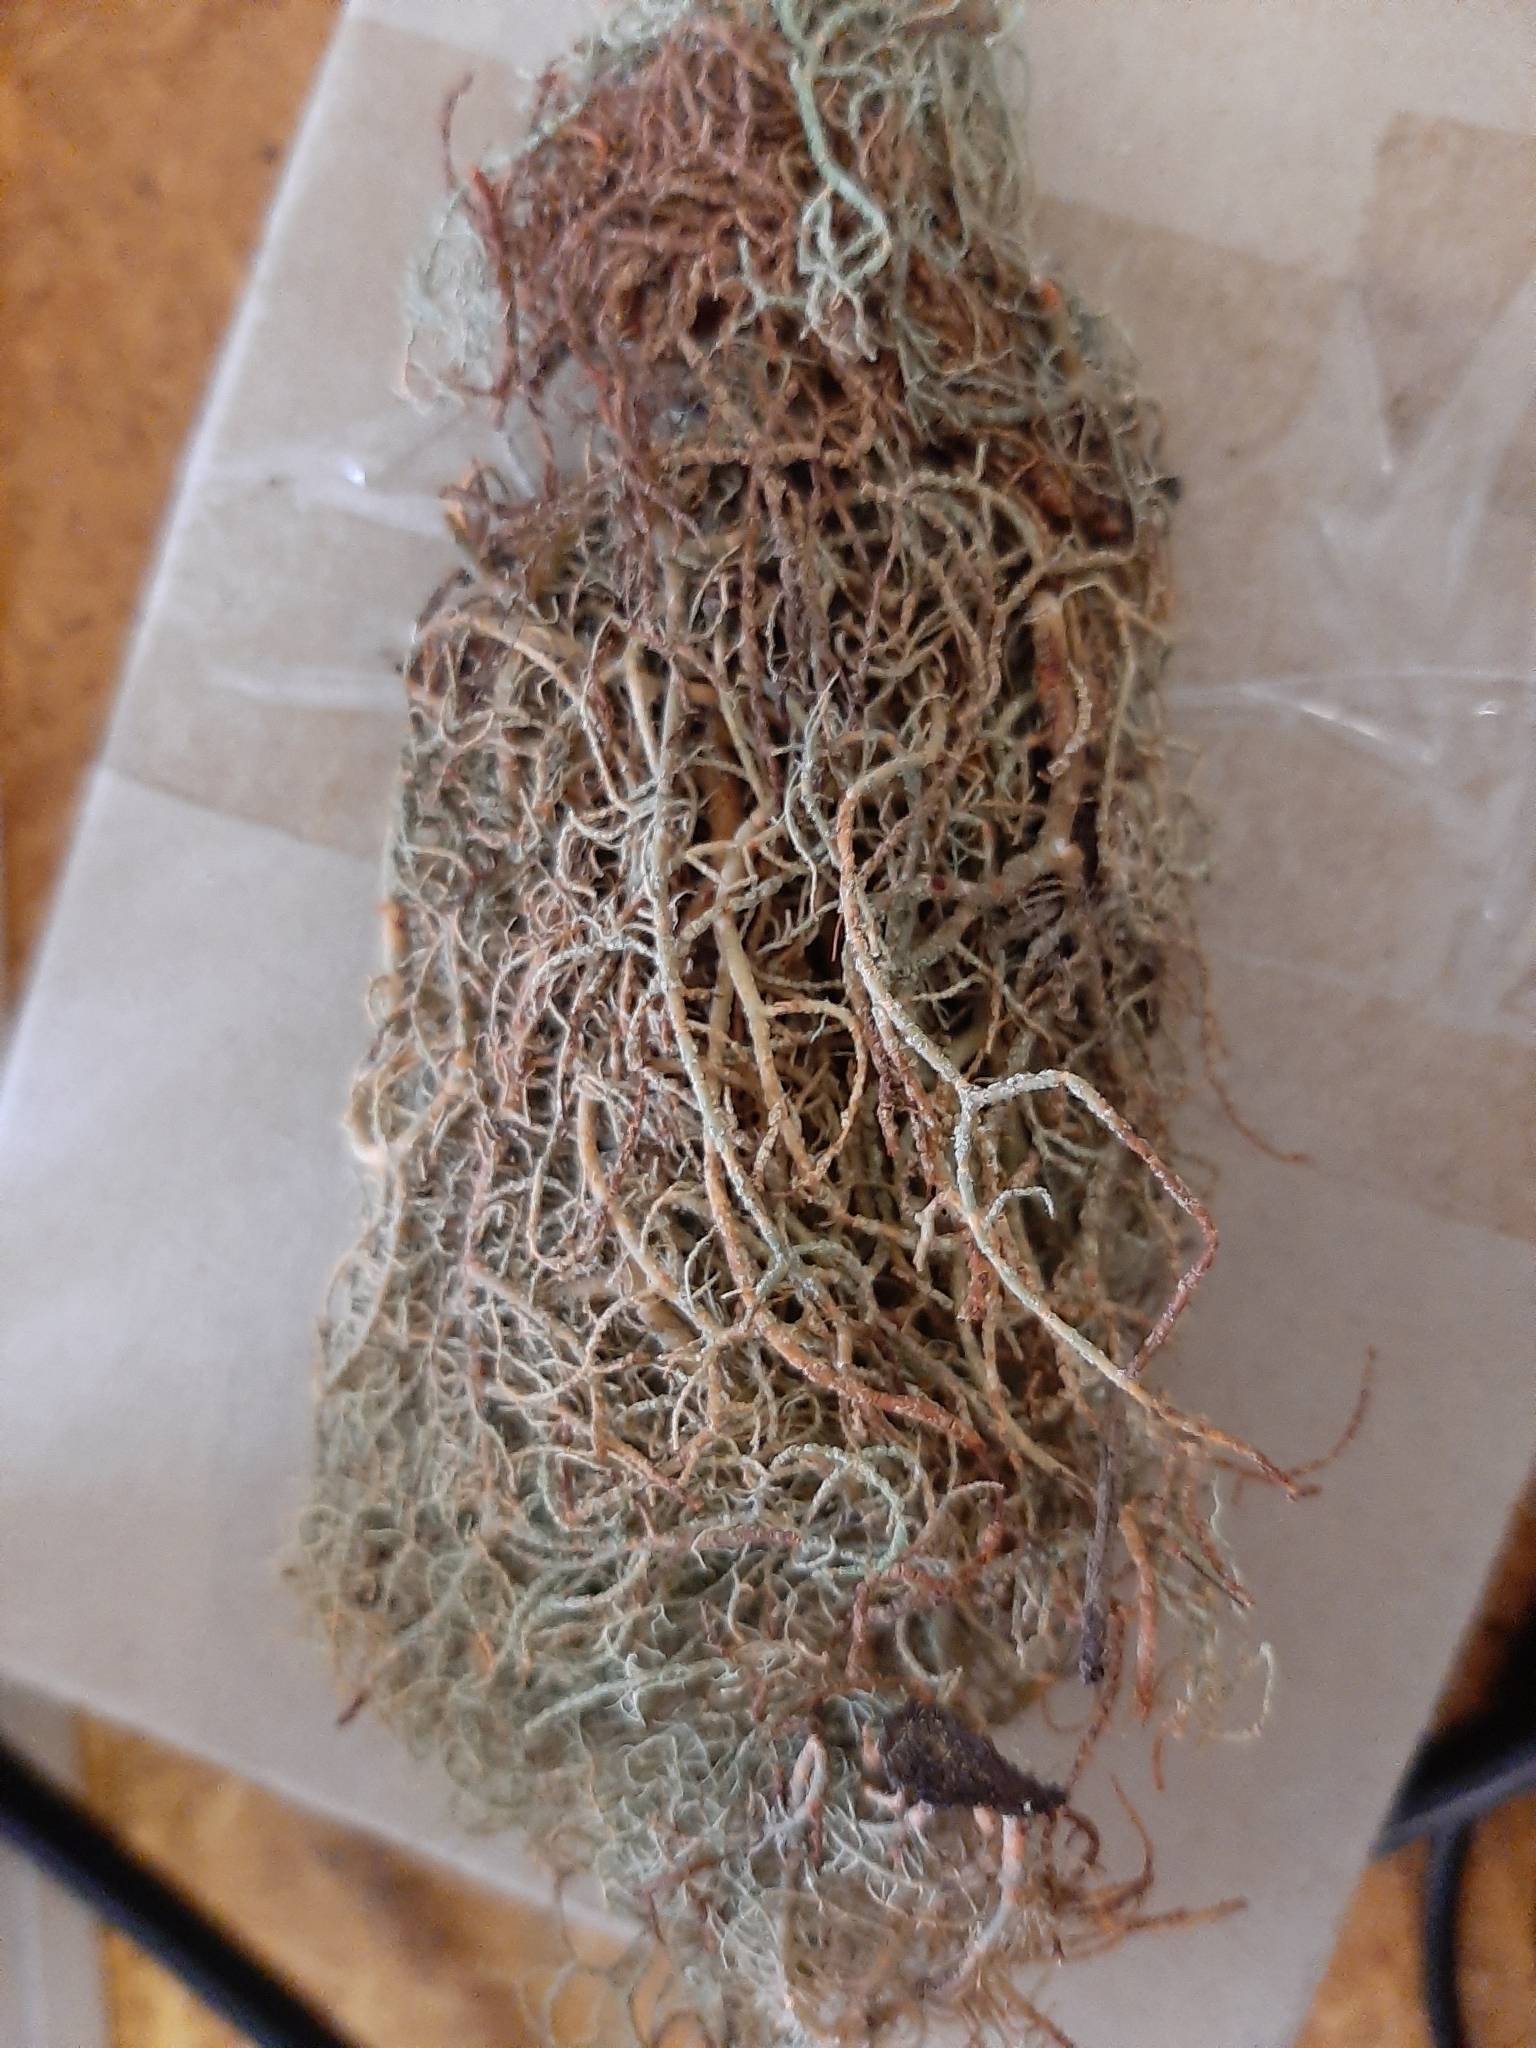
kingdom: Fungi
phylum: Ascomycota
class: Lecanoromycetes
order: Lecanorales
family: Parmeliaceae
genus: Usnea
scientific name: Usnea rubicunda
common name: Red beard lichen
